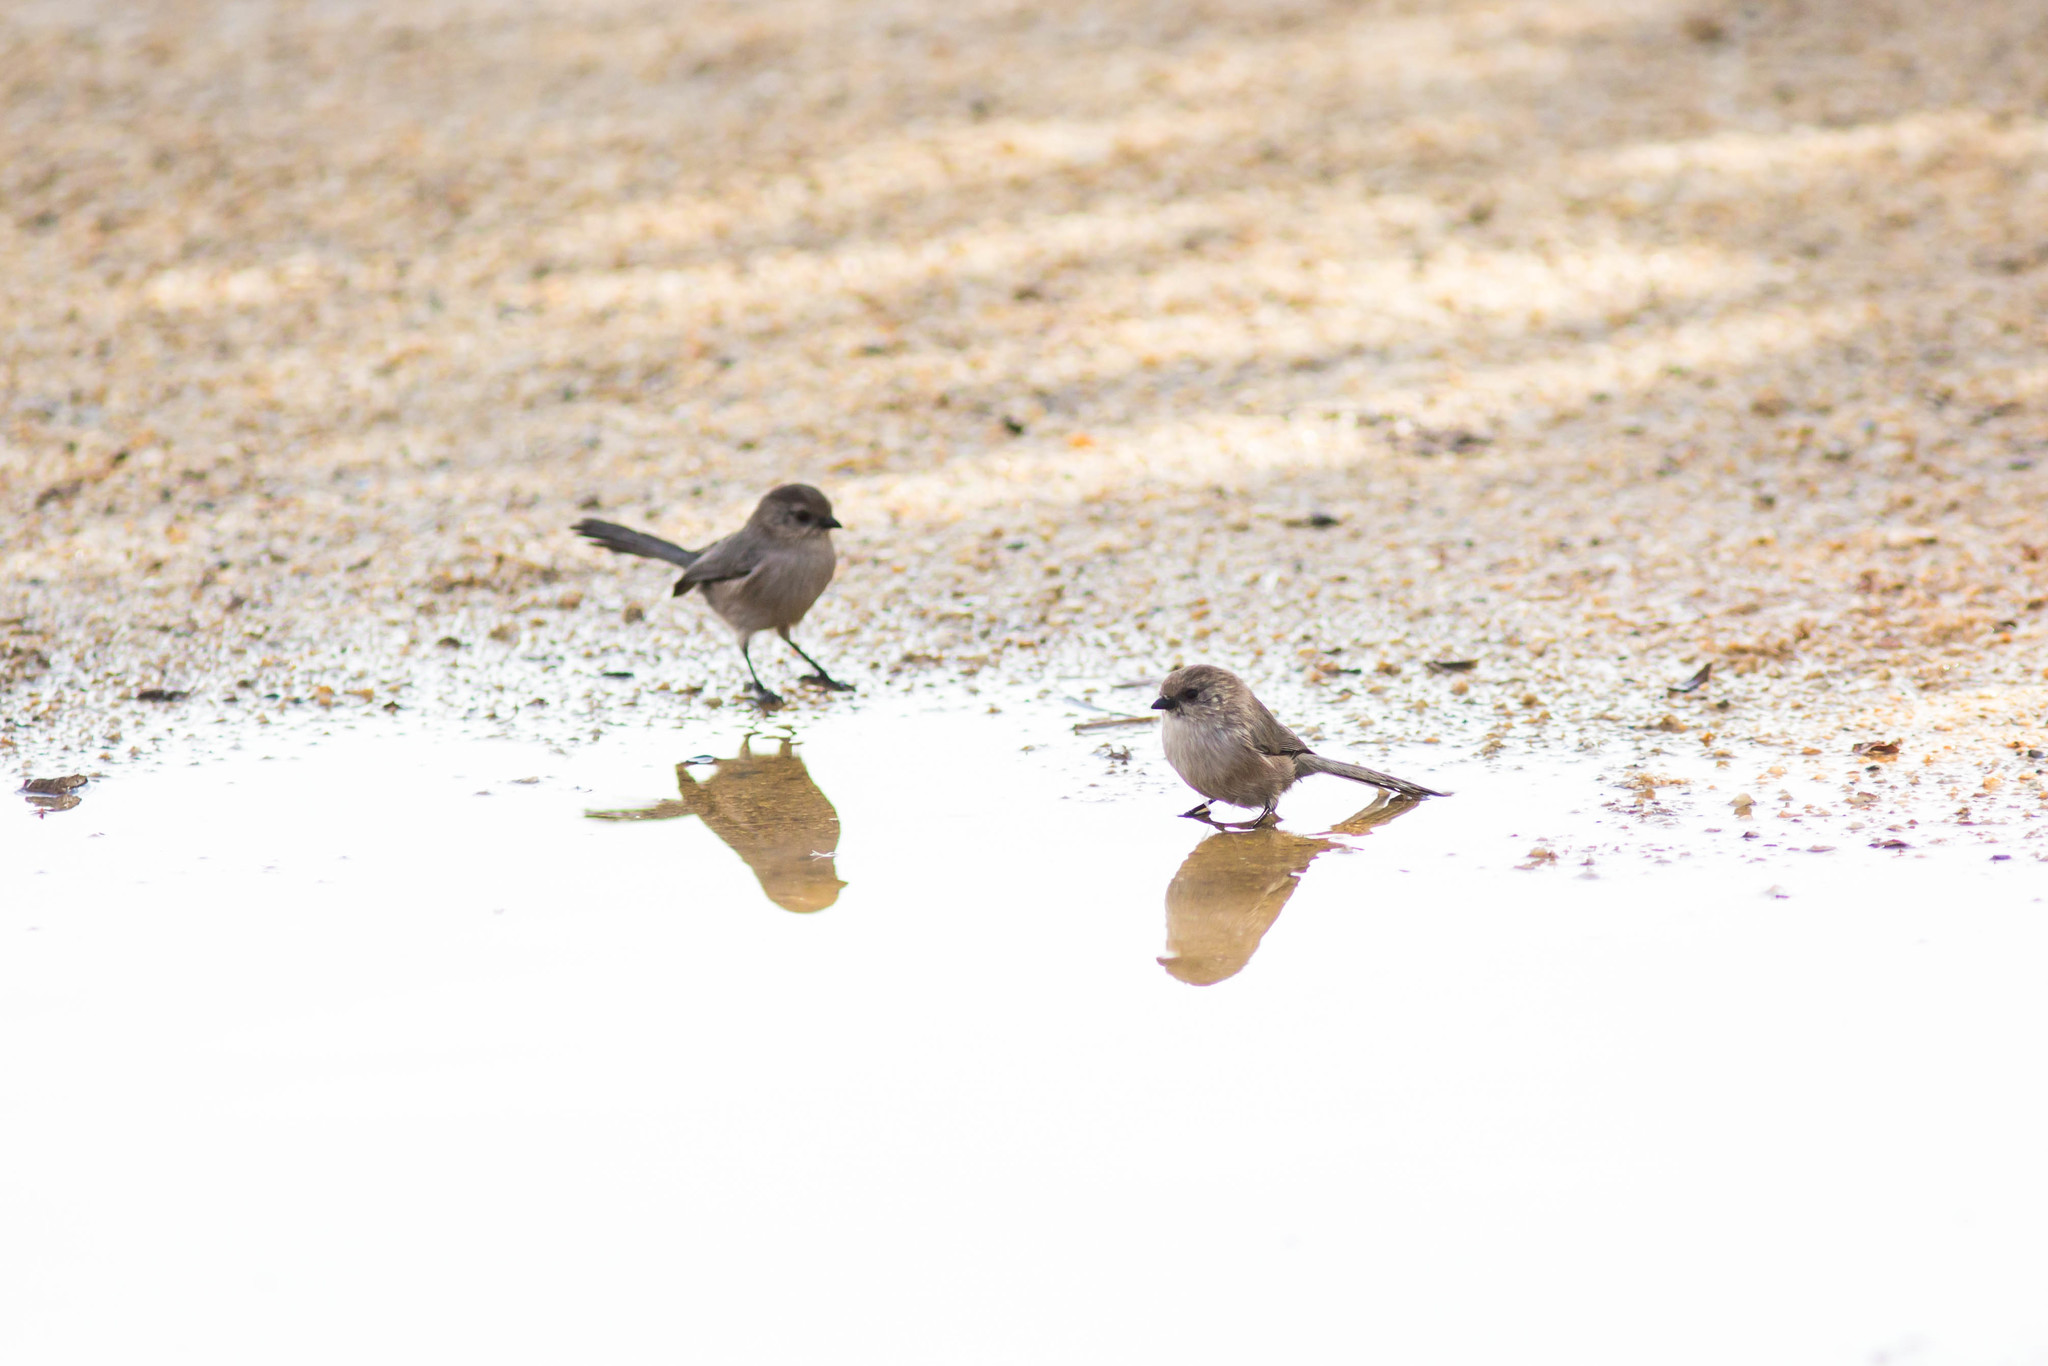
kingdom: Animalia
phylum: Chordata
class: Aves
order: Passeriformes
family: Aegithalidae
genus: Psaltriparus
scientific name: Psaltriparus minimus
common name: American bushtit
